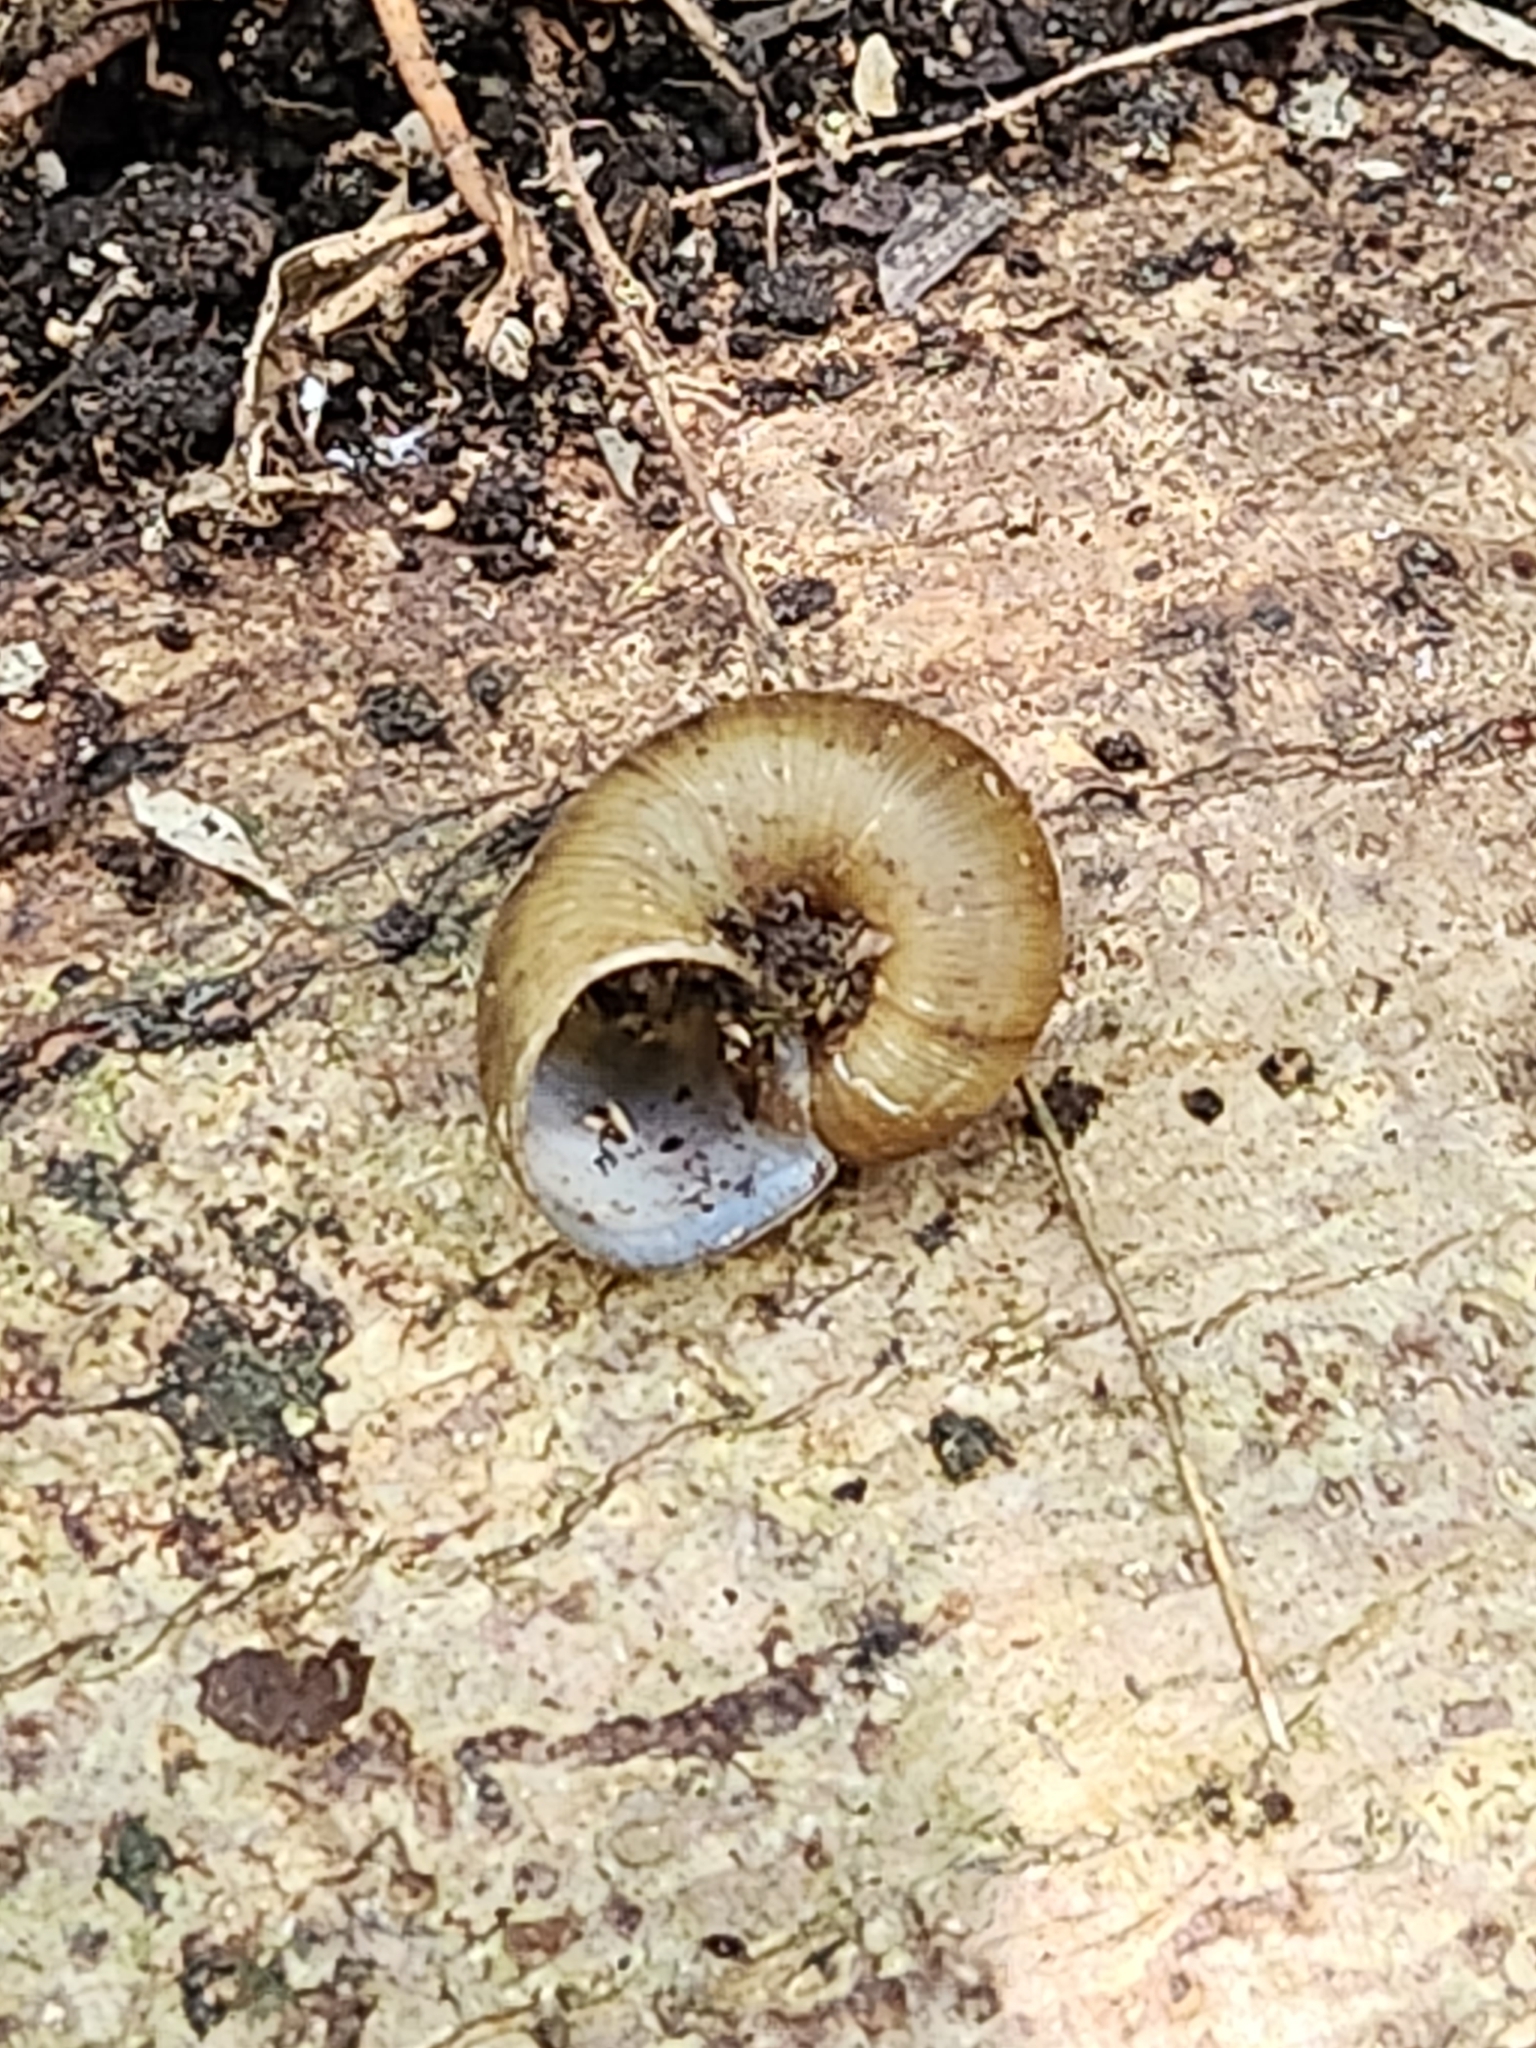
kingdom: Animalia
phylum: Mollusca
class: Gastropoda
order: Architaenioglossa
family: Neocyclotidae
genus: Neocyclotus
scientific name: Neocyclotus dysoni
